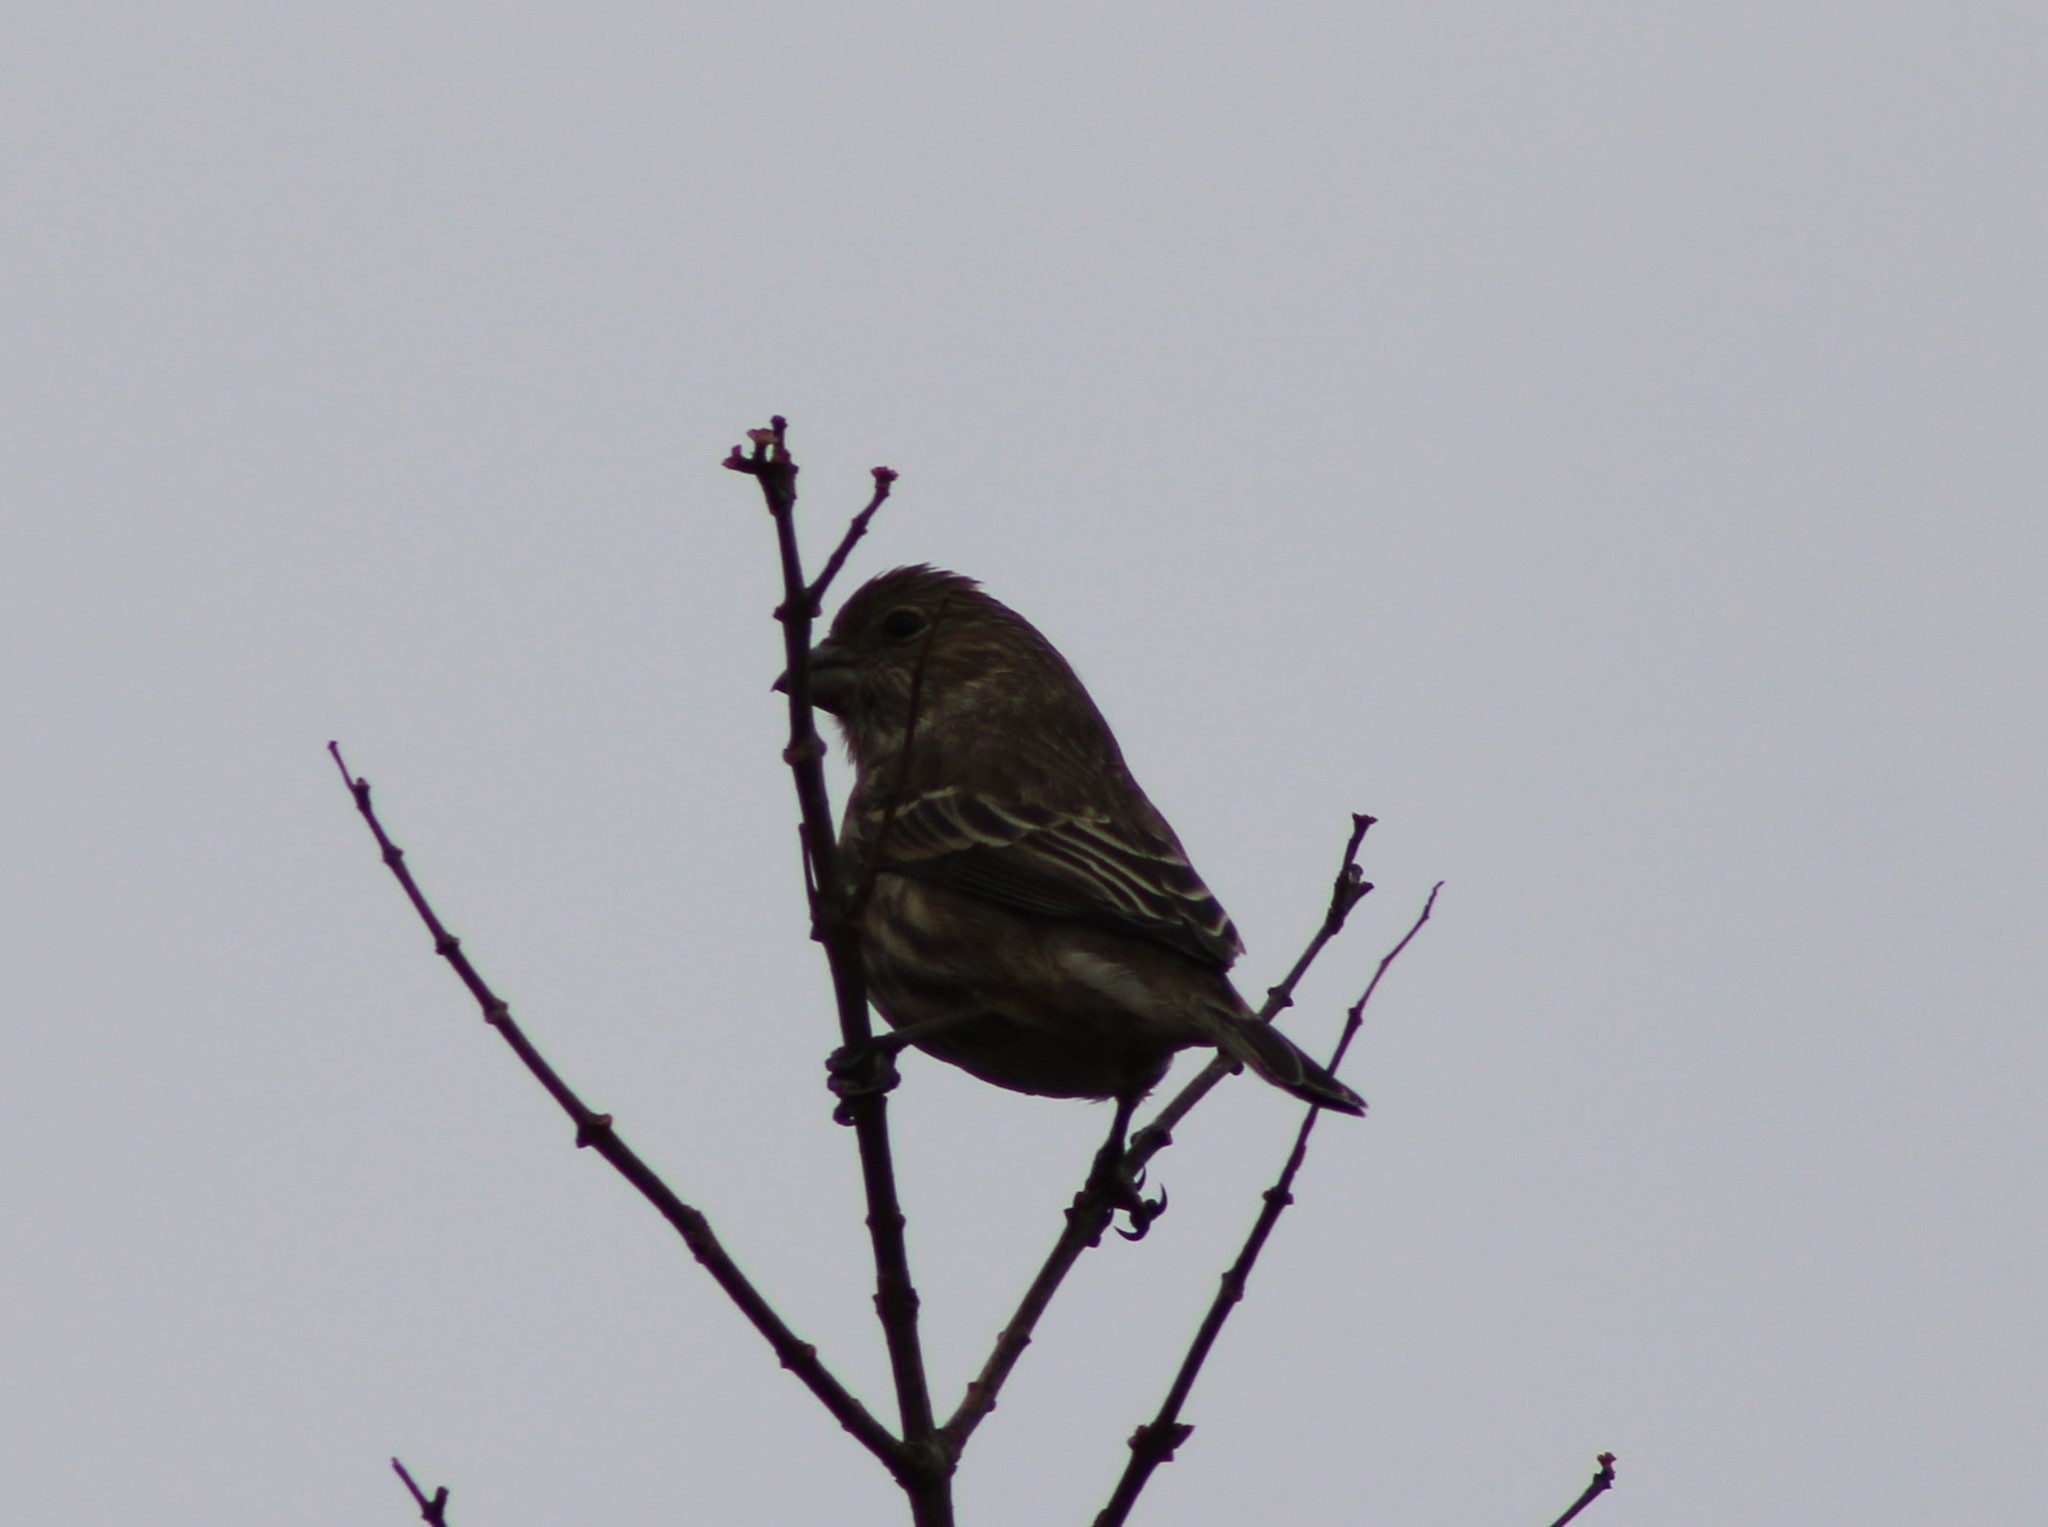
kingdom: Animalia
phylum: Chordata
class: Aves
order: Passeriformes
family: Fringillidae
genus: Haemorhous
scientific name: Haemorhous mexicanus
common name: House finch
